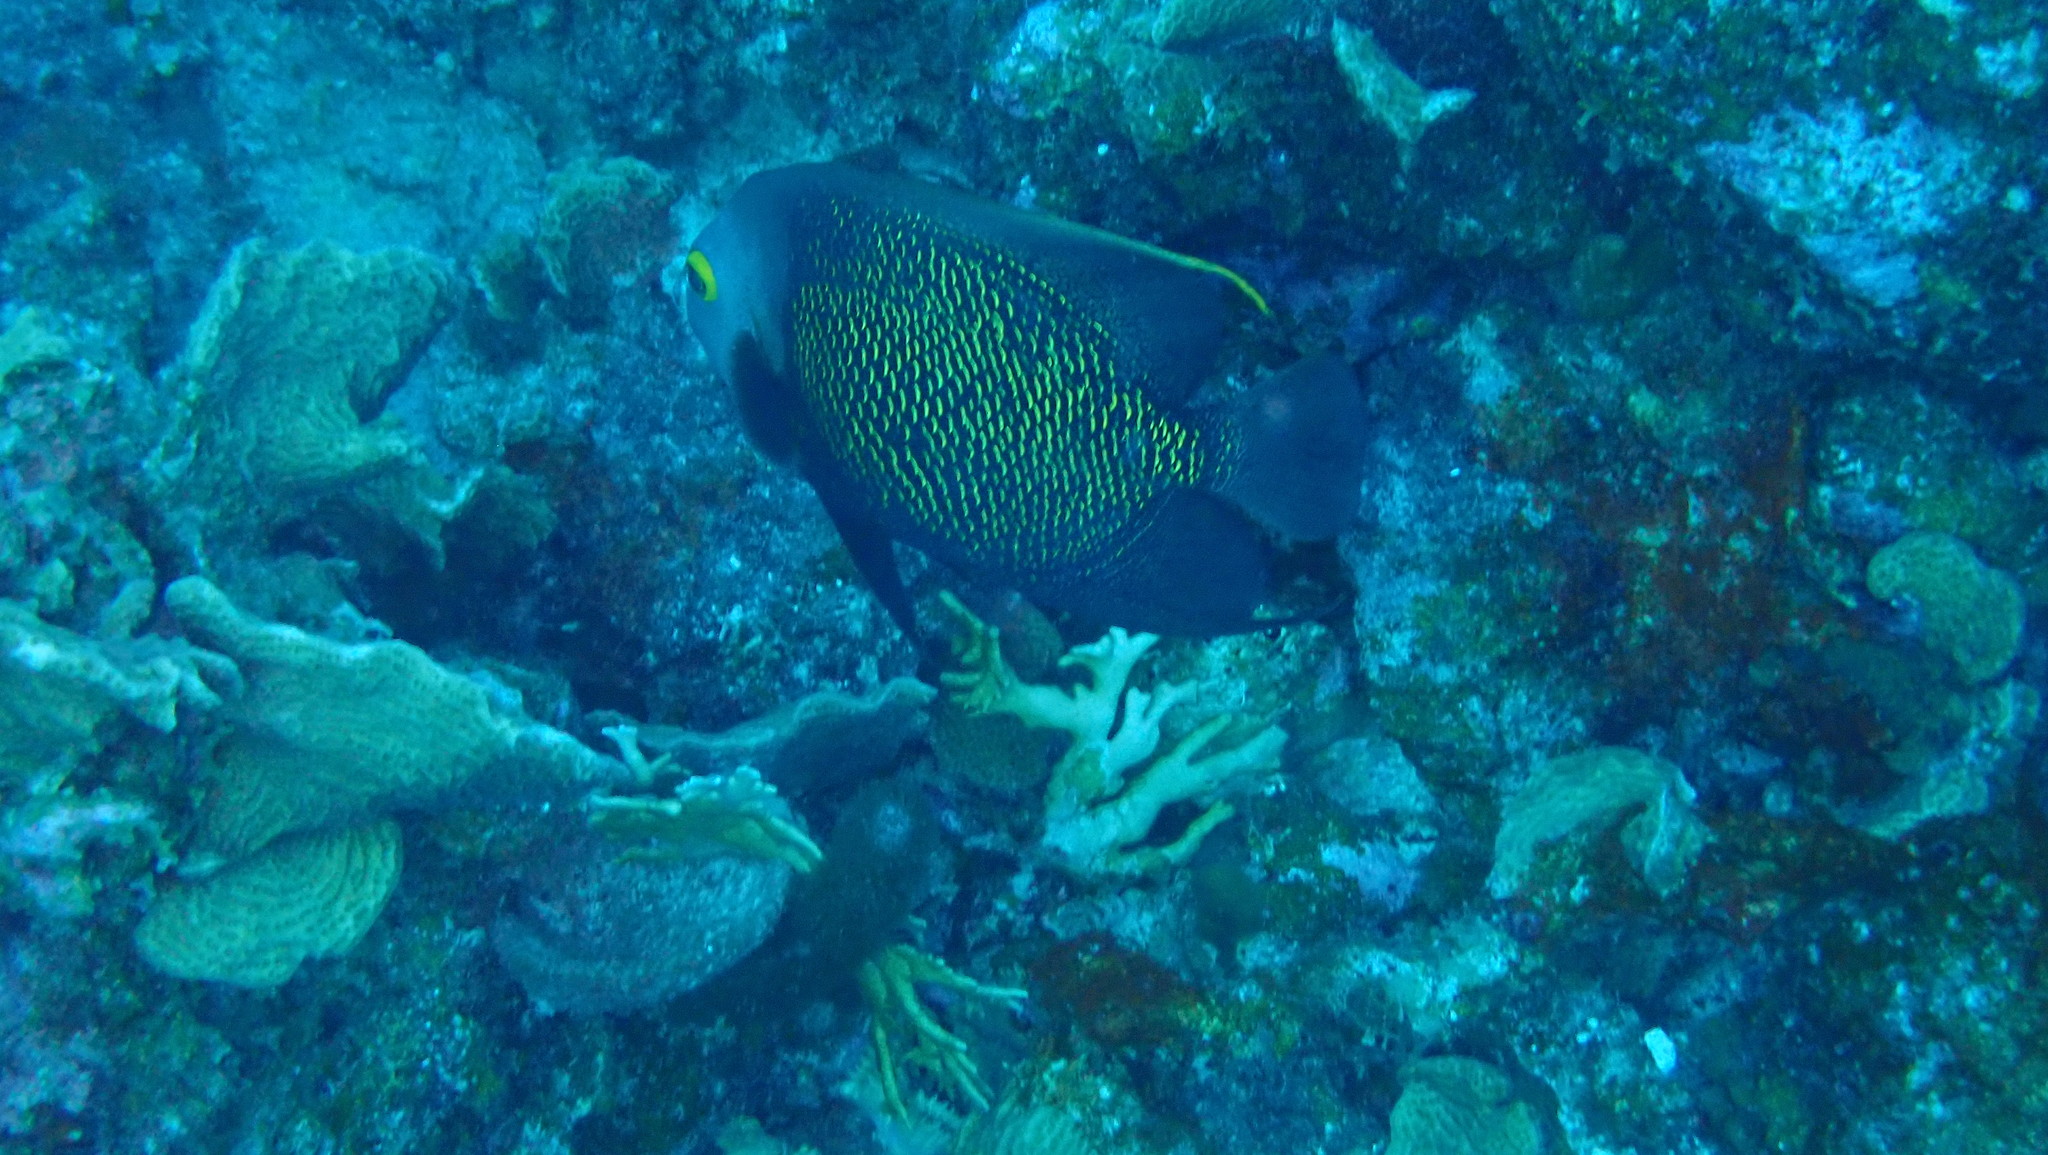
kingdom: Animalia
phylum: Chordata
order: Perciformes
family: Pomacanthidae
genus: Pomacanthus
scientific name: Pomacanthus paru
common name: French angelfish
